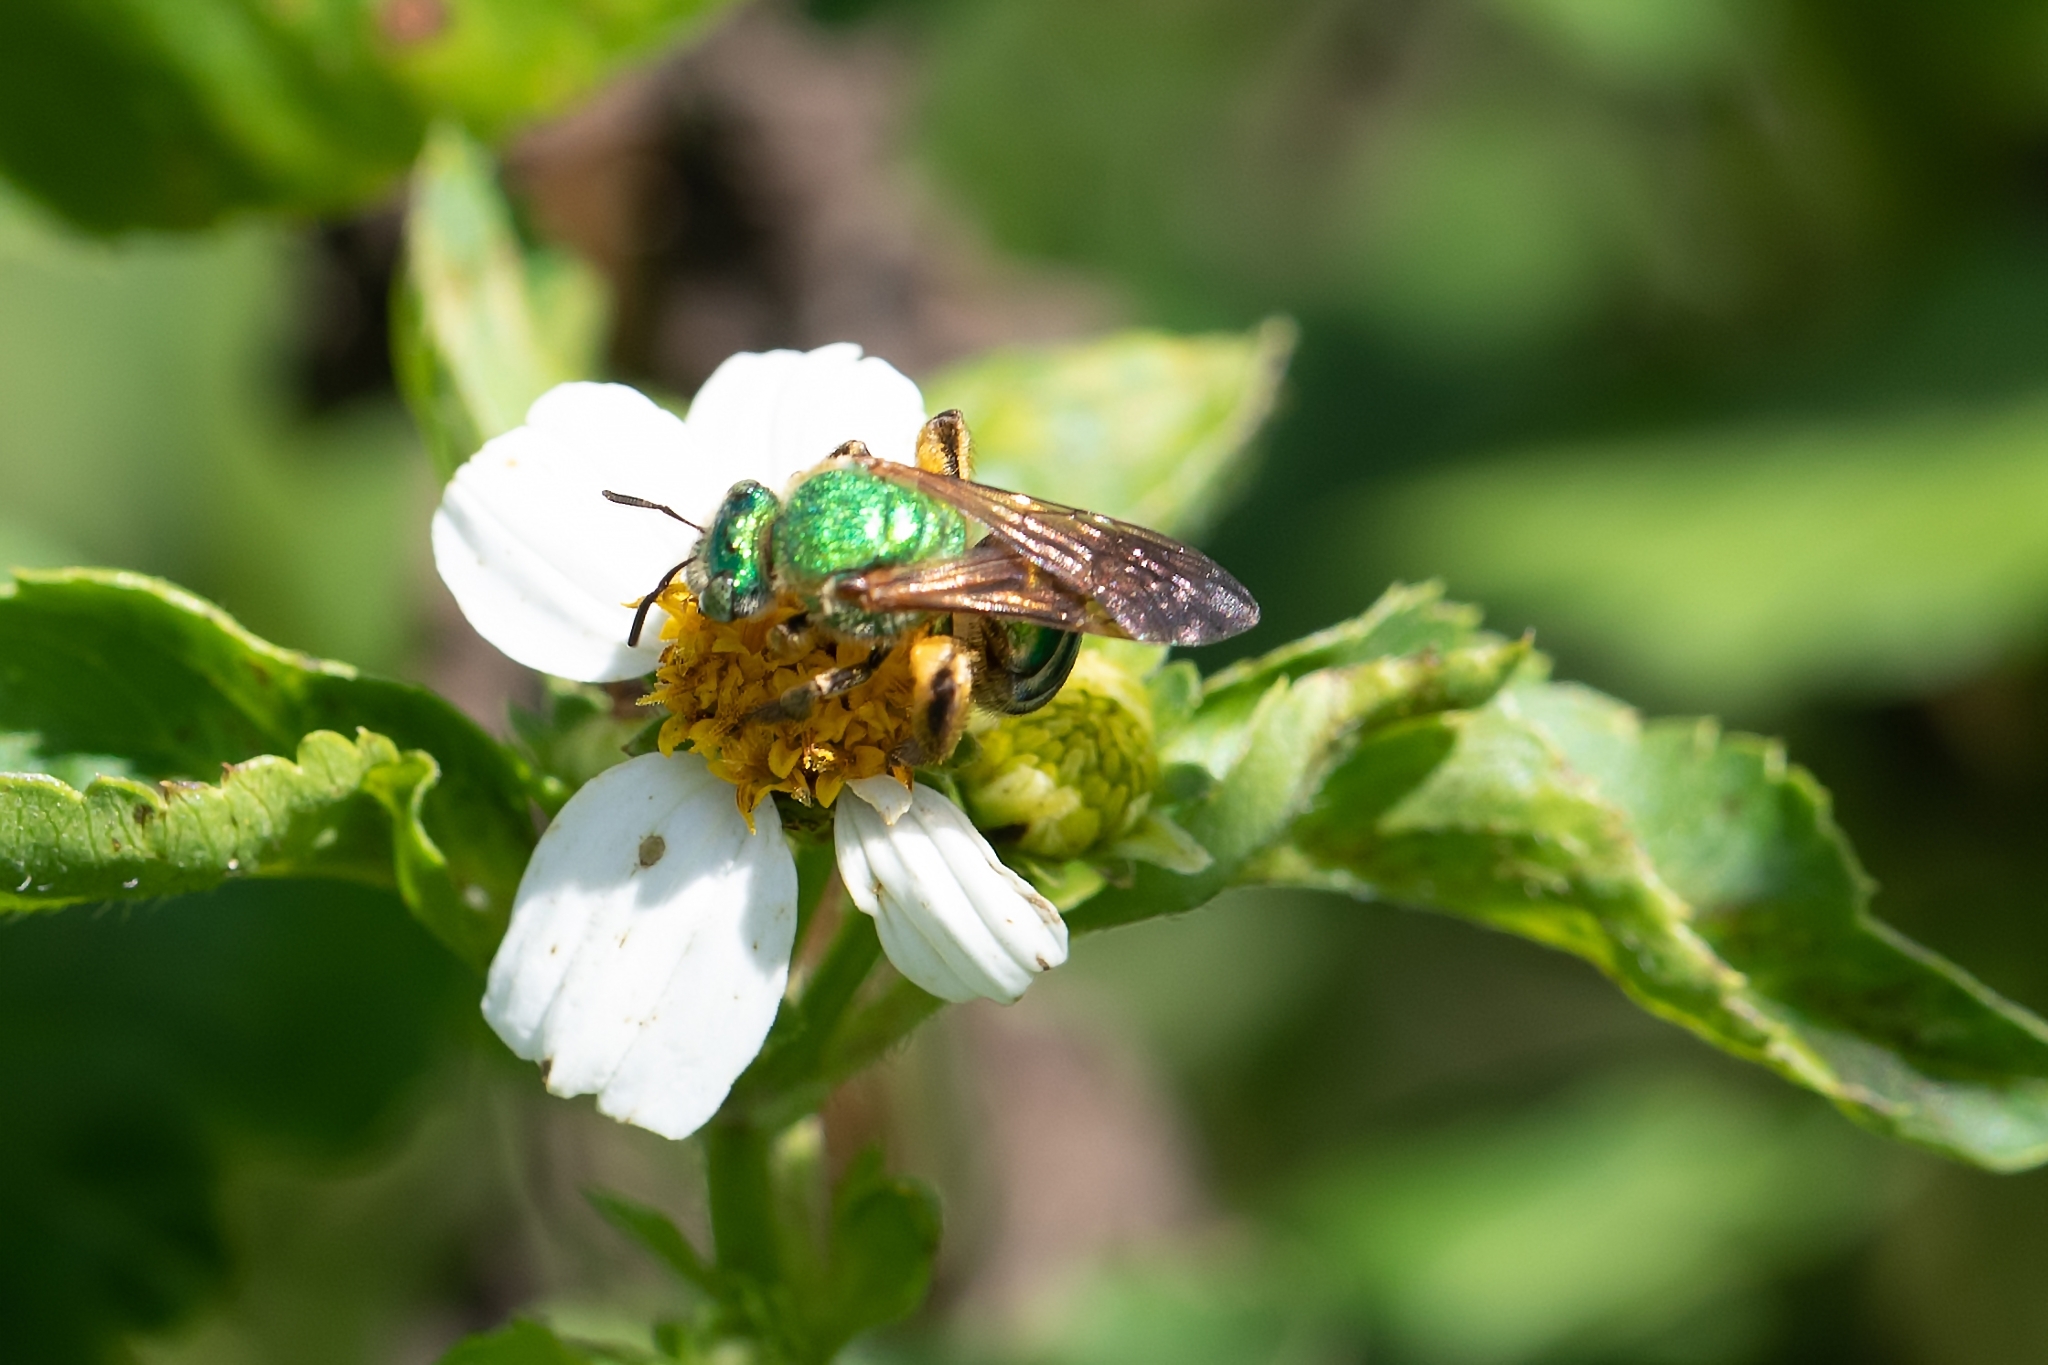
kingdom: Animalia
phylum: Arthropoda
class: Insecta
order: Hymenoptera
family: Halictidae
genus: Agapostemon
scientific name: Agapostemon splendens
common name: Brown-winged striped sweat bee
